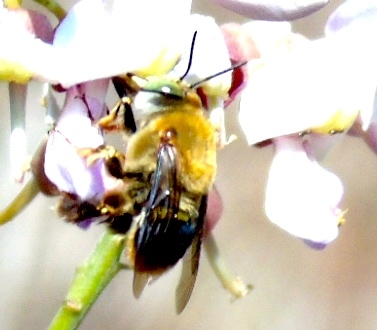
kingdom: Animalia
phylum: Arthropoda
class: Insecta
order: Hymenoptera
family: Apidae
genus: Centris
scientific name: Centris
